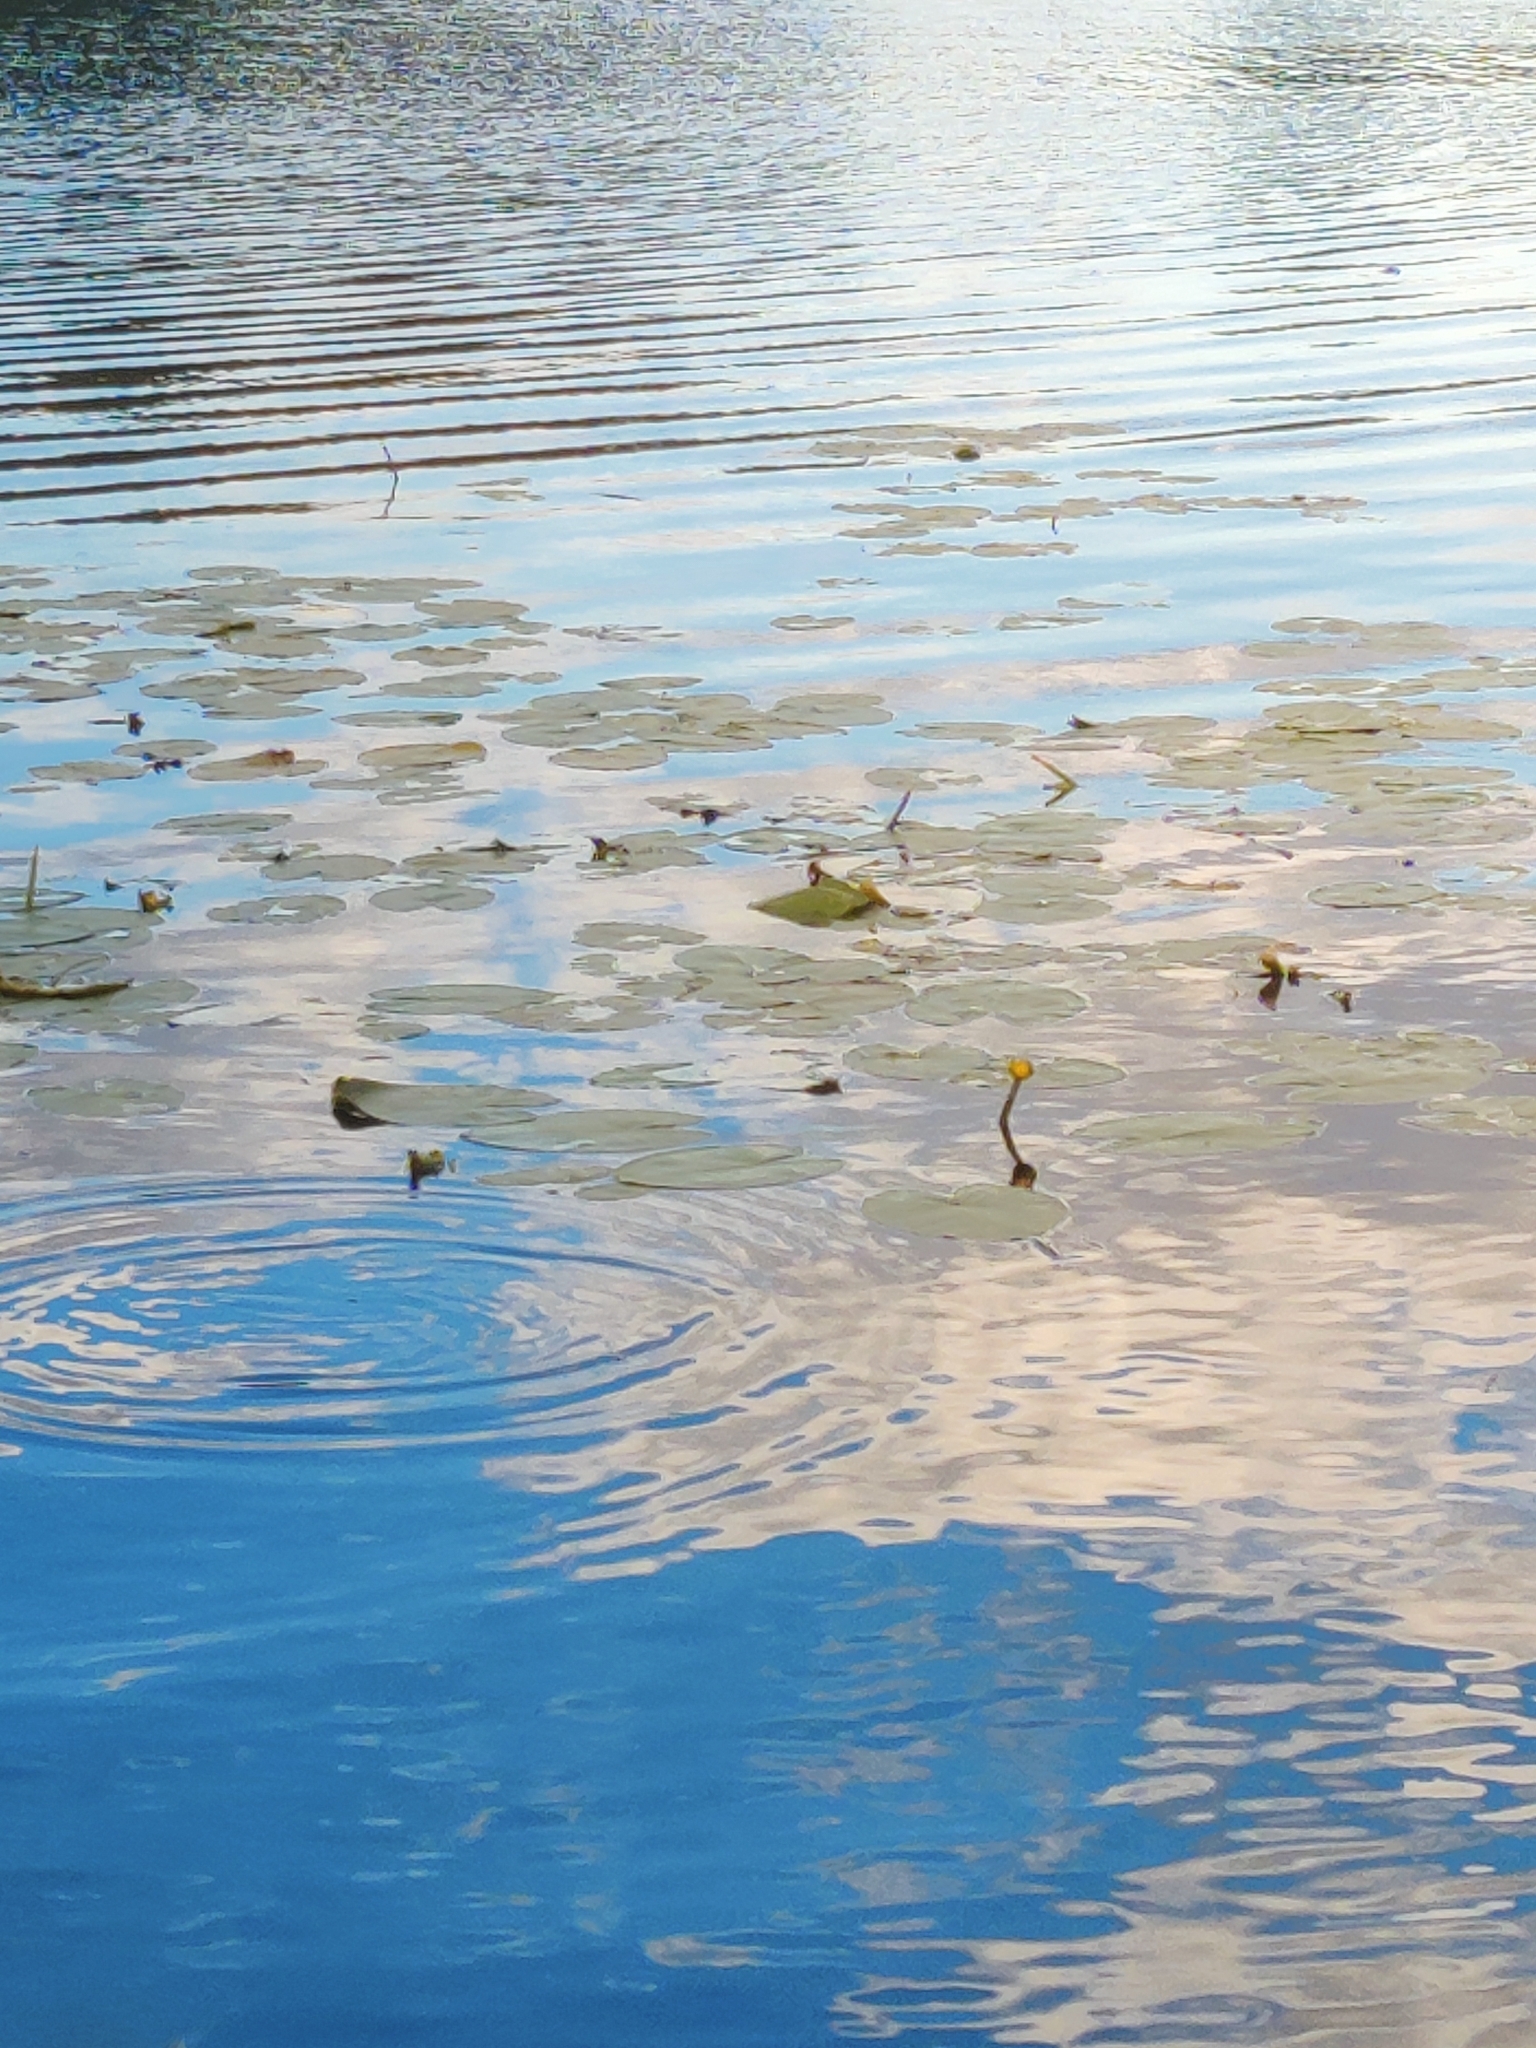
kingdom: Plantae
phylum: Tracheophyta
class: Magnoliopsida
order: Nymphaeales
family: Nymphaeaceae
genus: Nuphar
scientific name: Nuphar lutea
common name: Yellow water-lily
